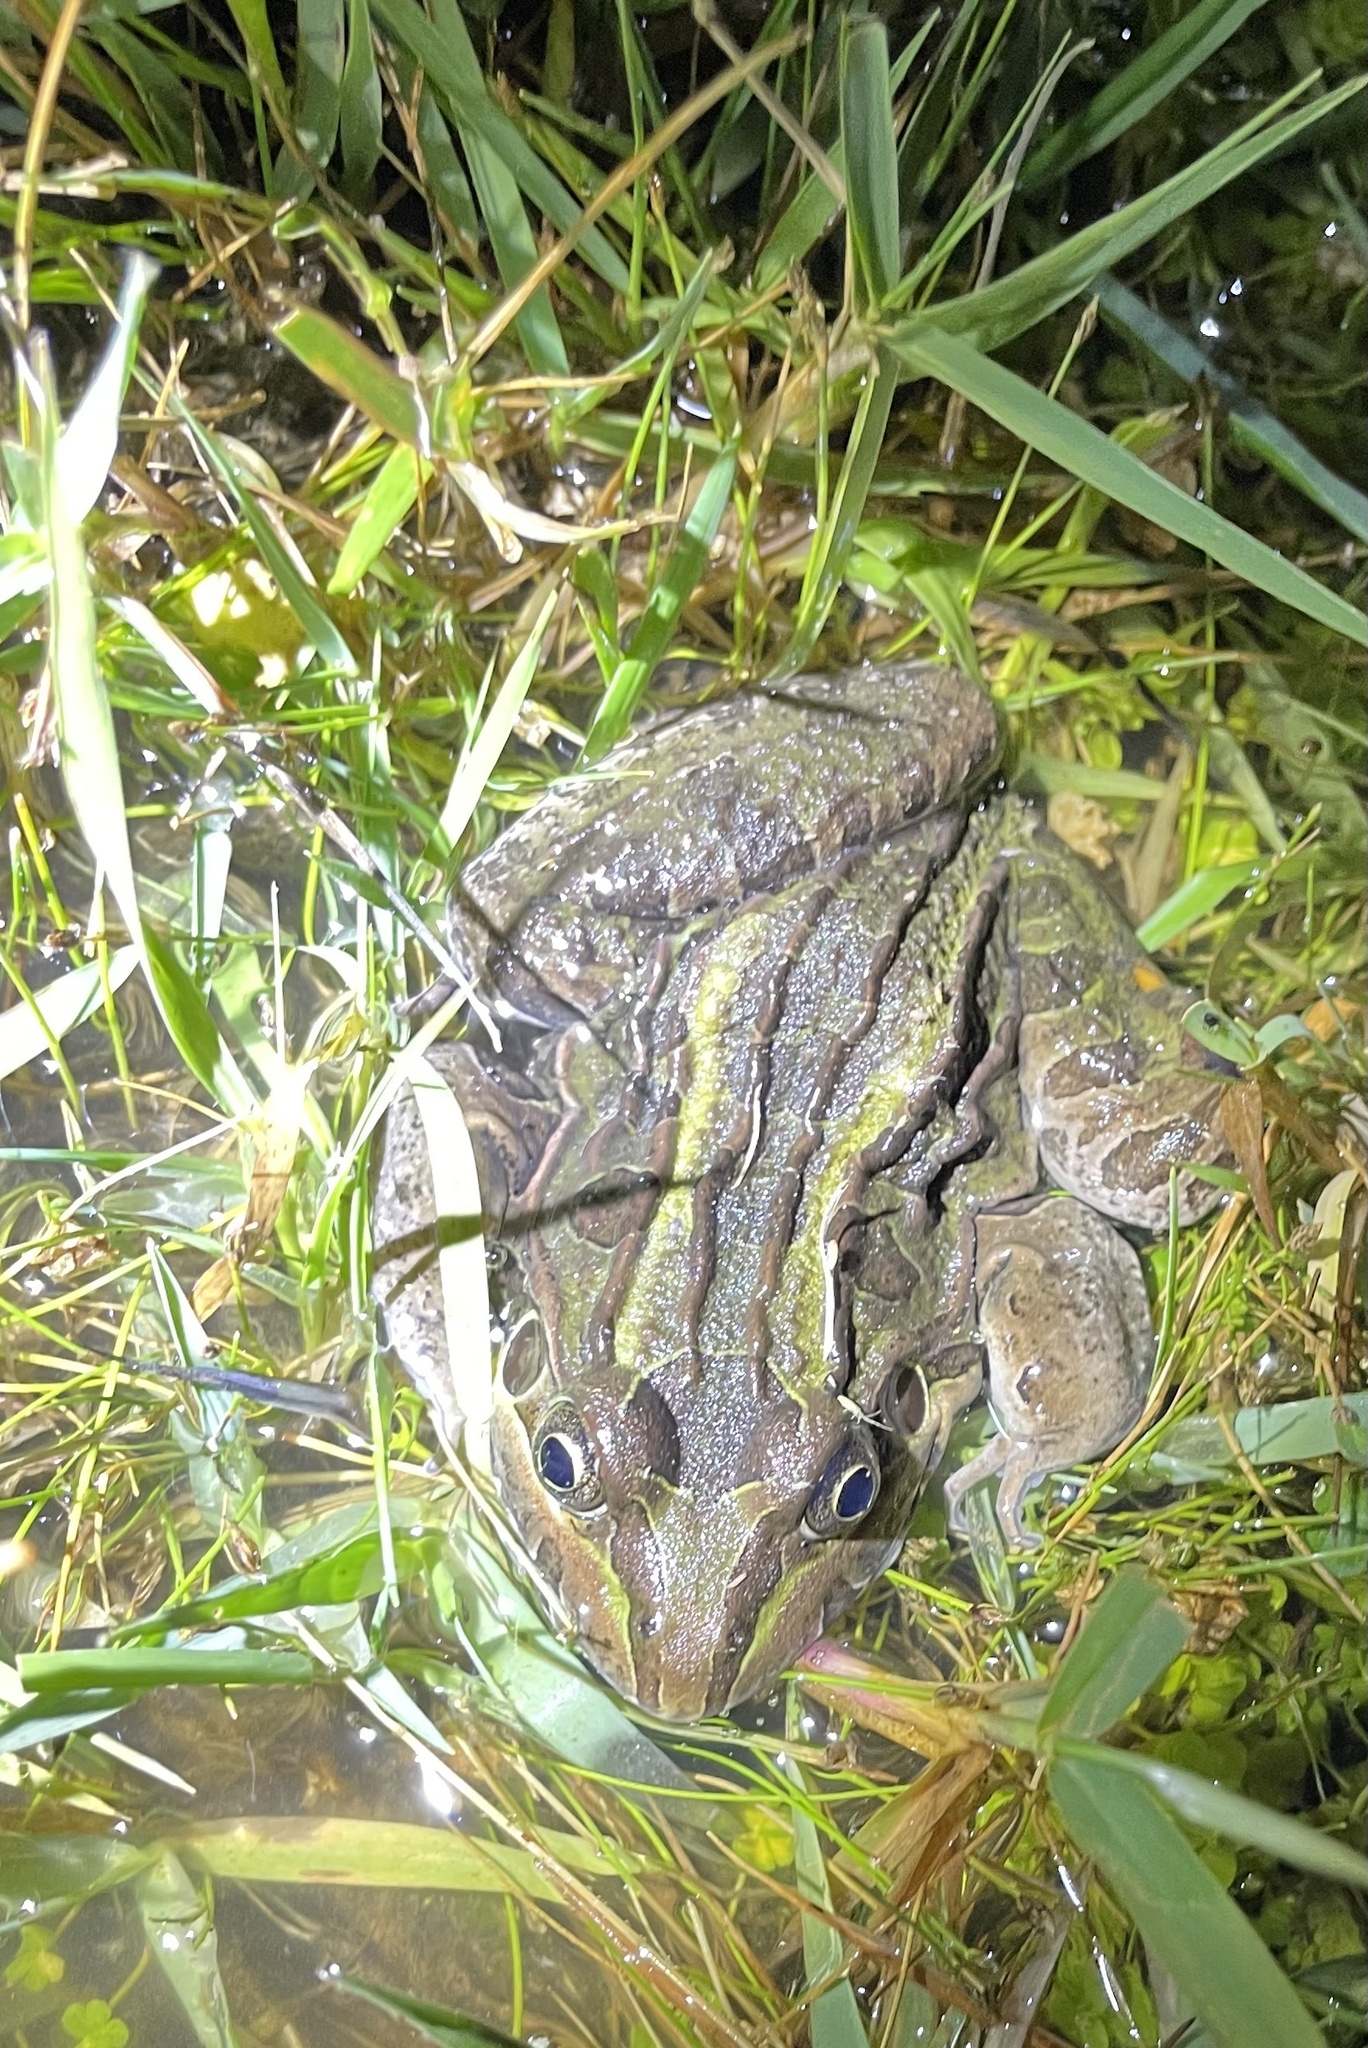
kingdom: Animalia
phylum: Chordata
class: Amphibia
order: Anura
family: Leptodactylidae
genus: Leptodactylus
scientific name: Leptodactylus luctator
